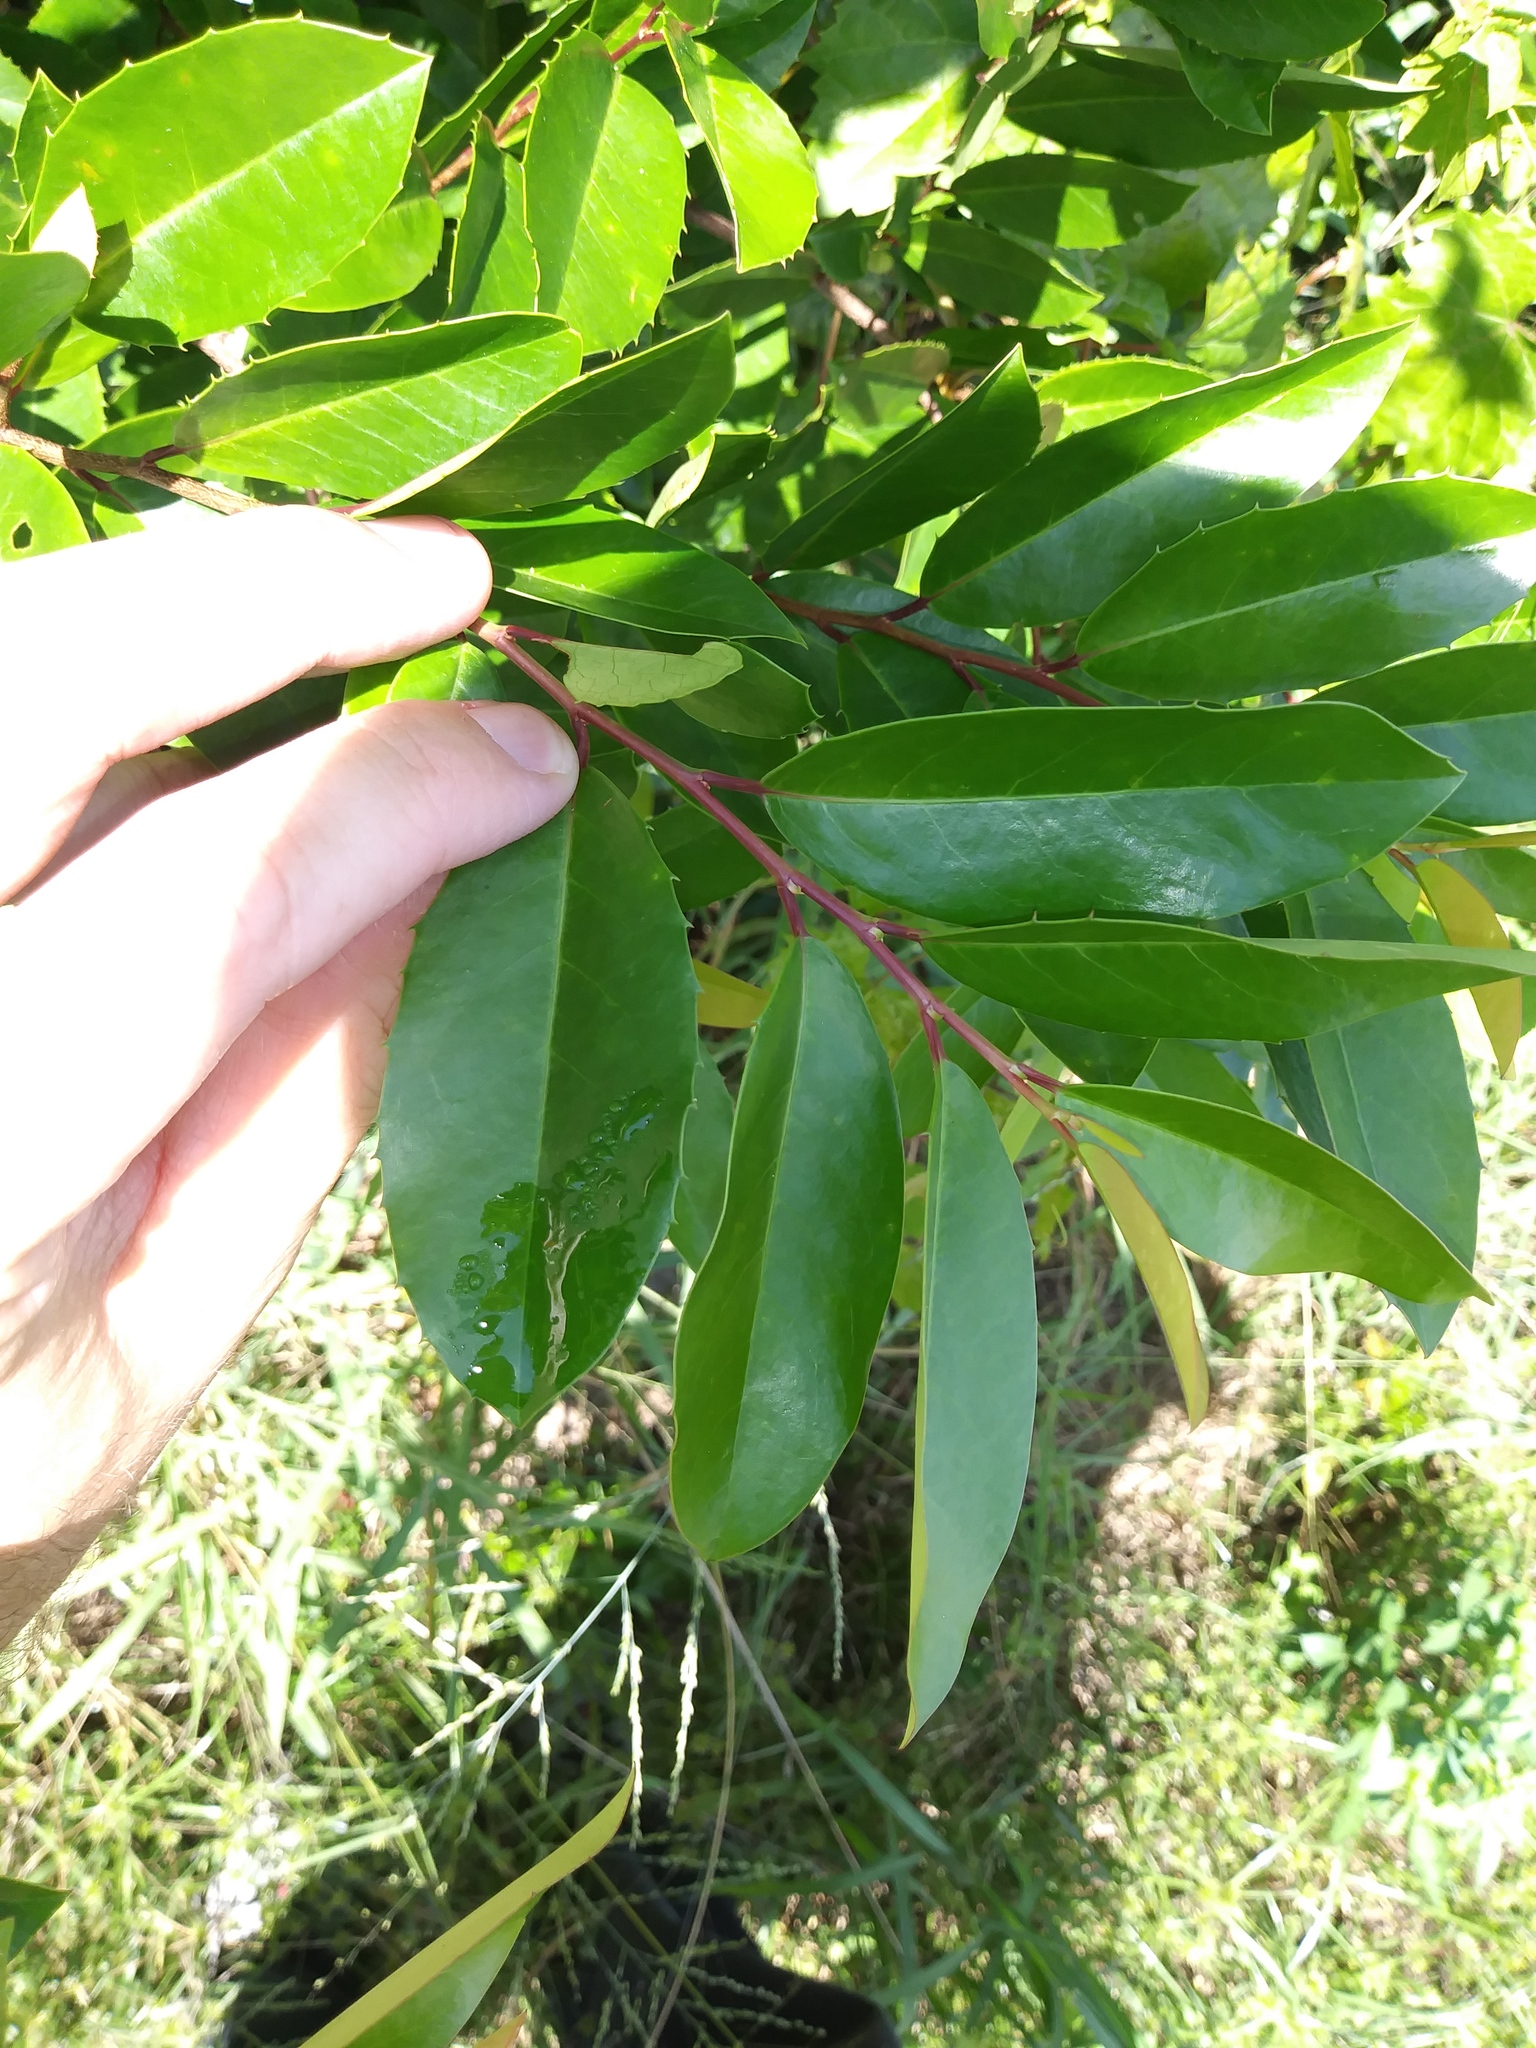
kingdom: Plantae
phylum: Tracheophyta
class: Magnoliopsida
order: Rosales
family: Rosaceae
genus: Prunus
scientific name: Prunus caroliniana
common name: Carolina laurel cherry
